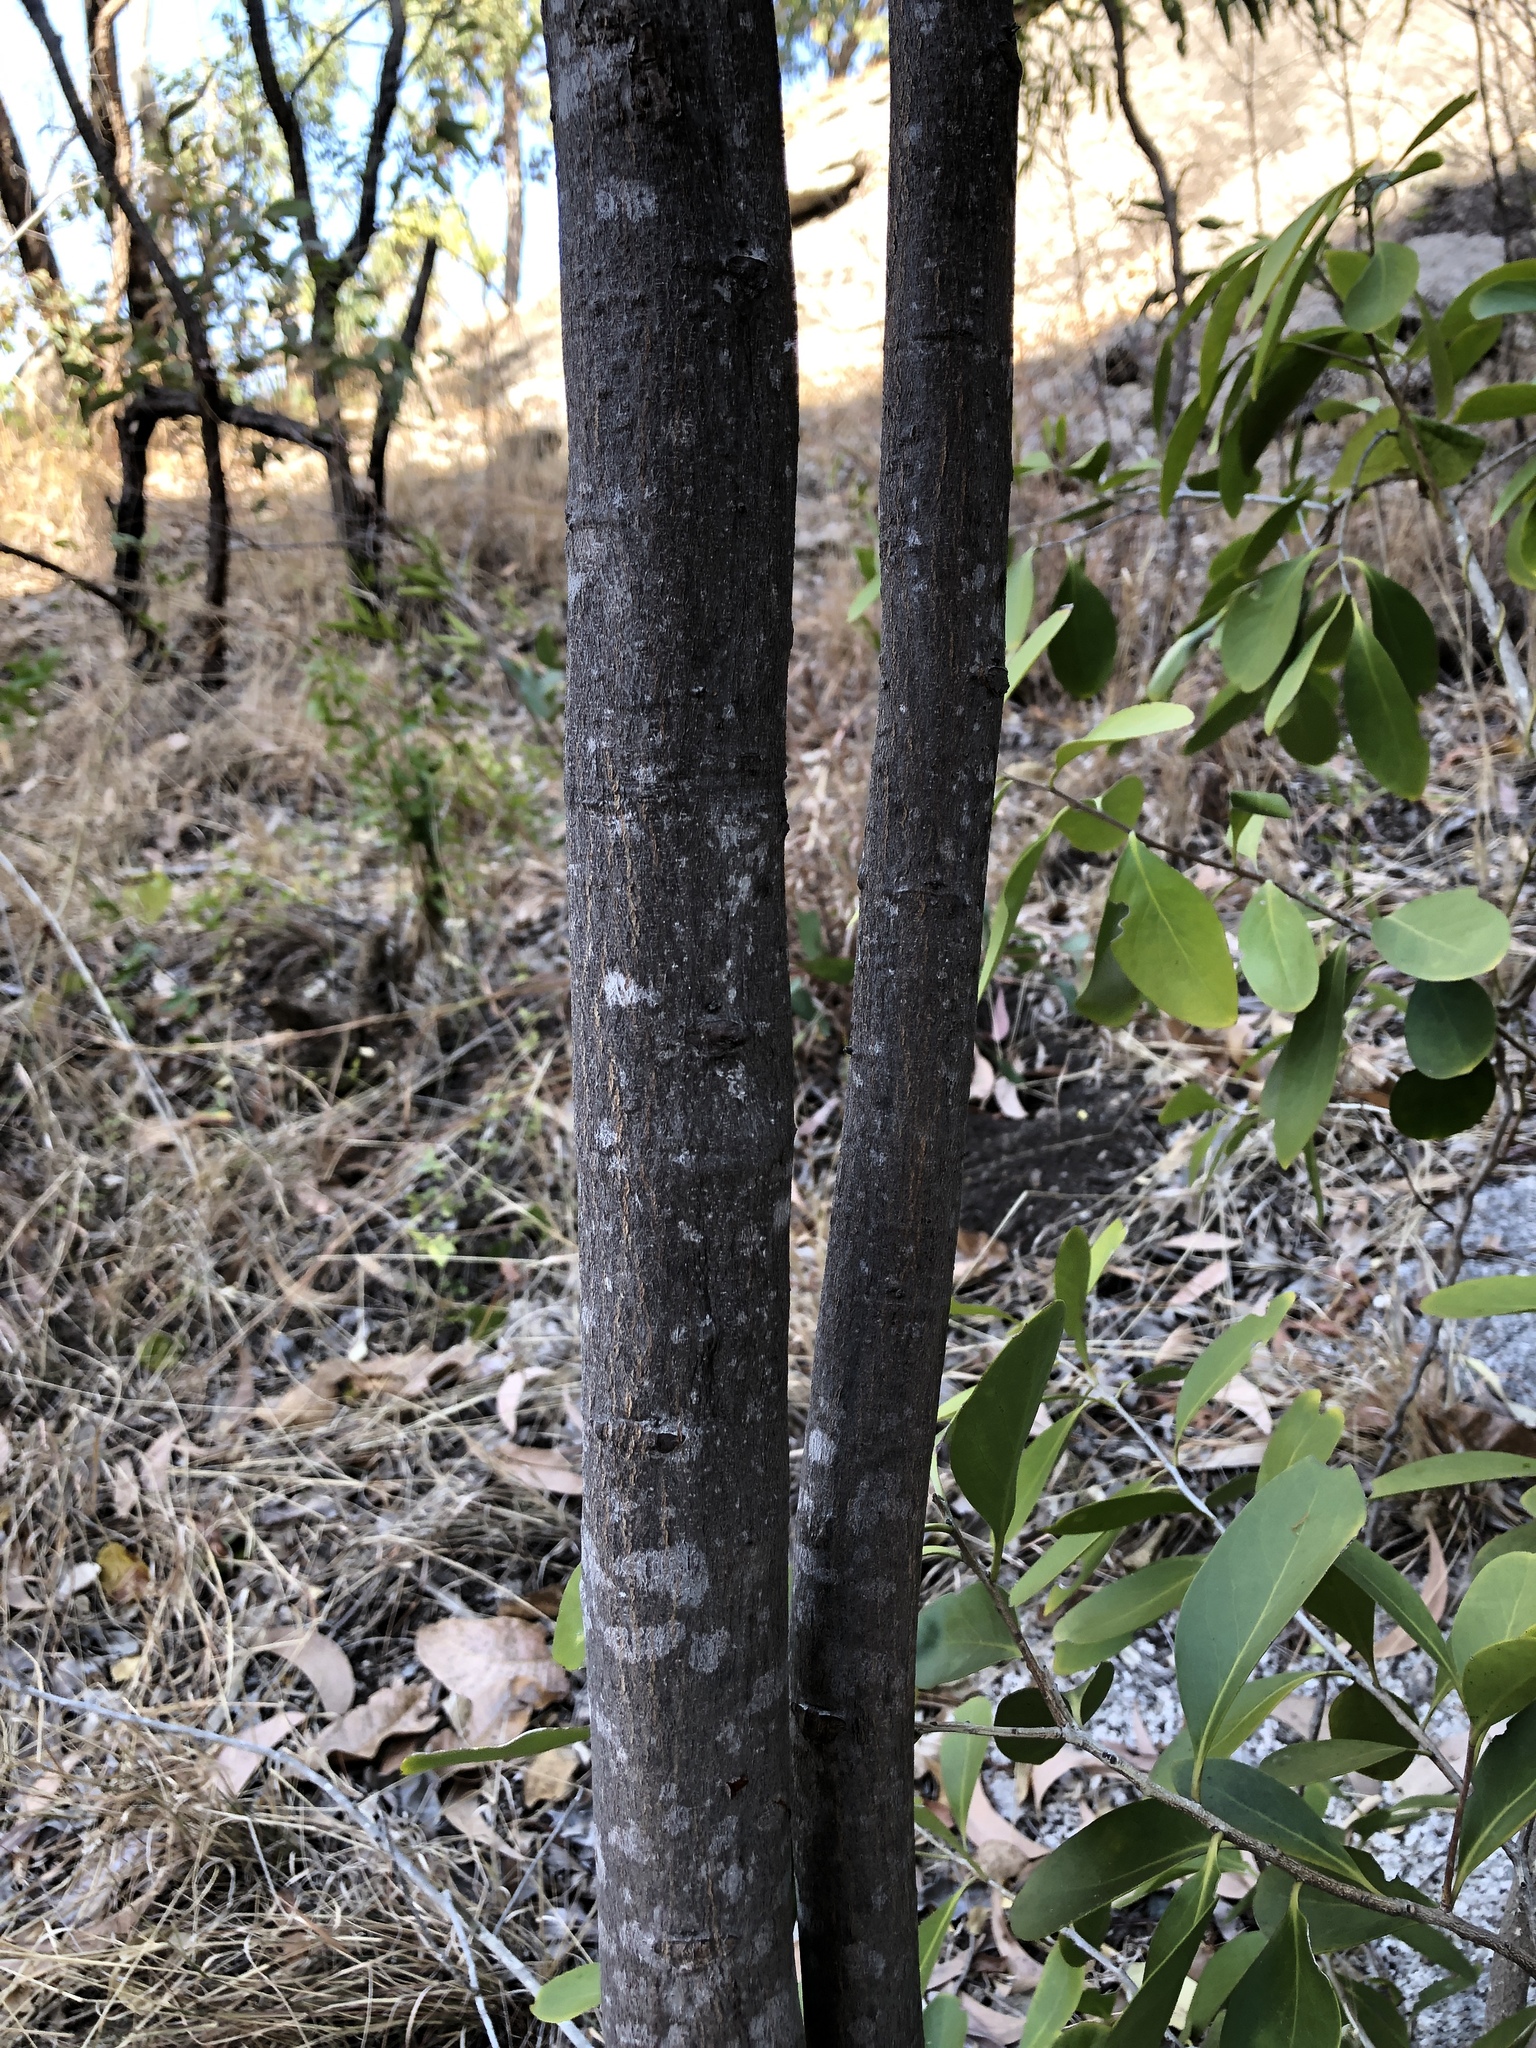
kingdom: Plantae
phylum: Tracheophyta
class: Magnoliopsida
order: Sapindales
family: Sapindaceae
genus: Cupaniopsis
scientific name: Cupaniopsis anacardioides
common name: Carrotwood
